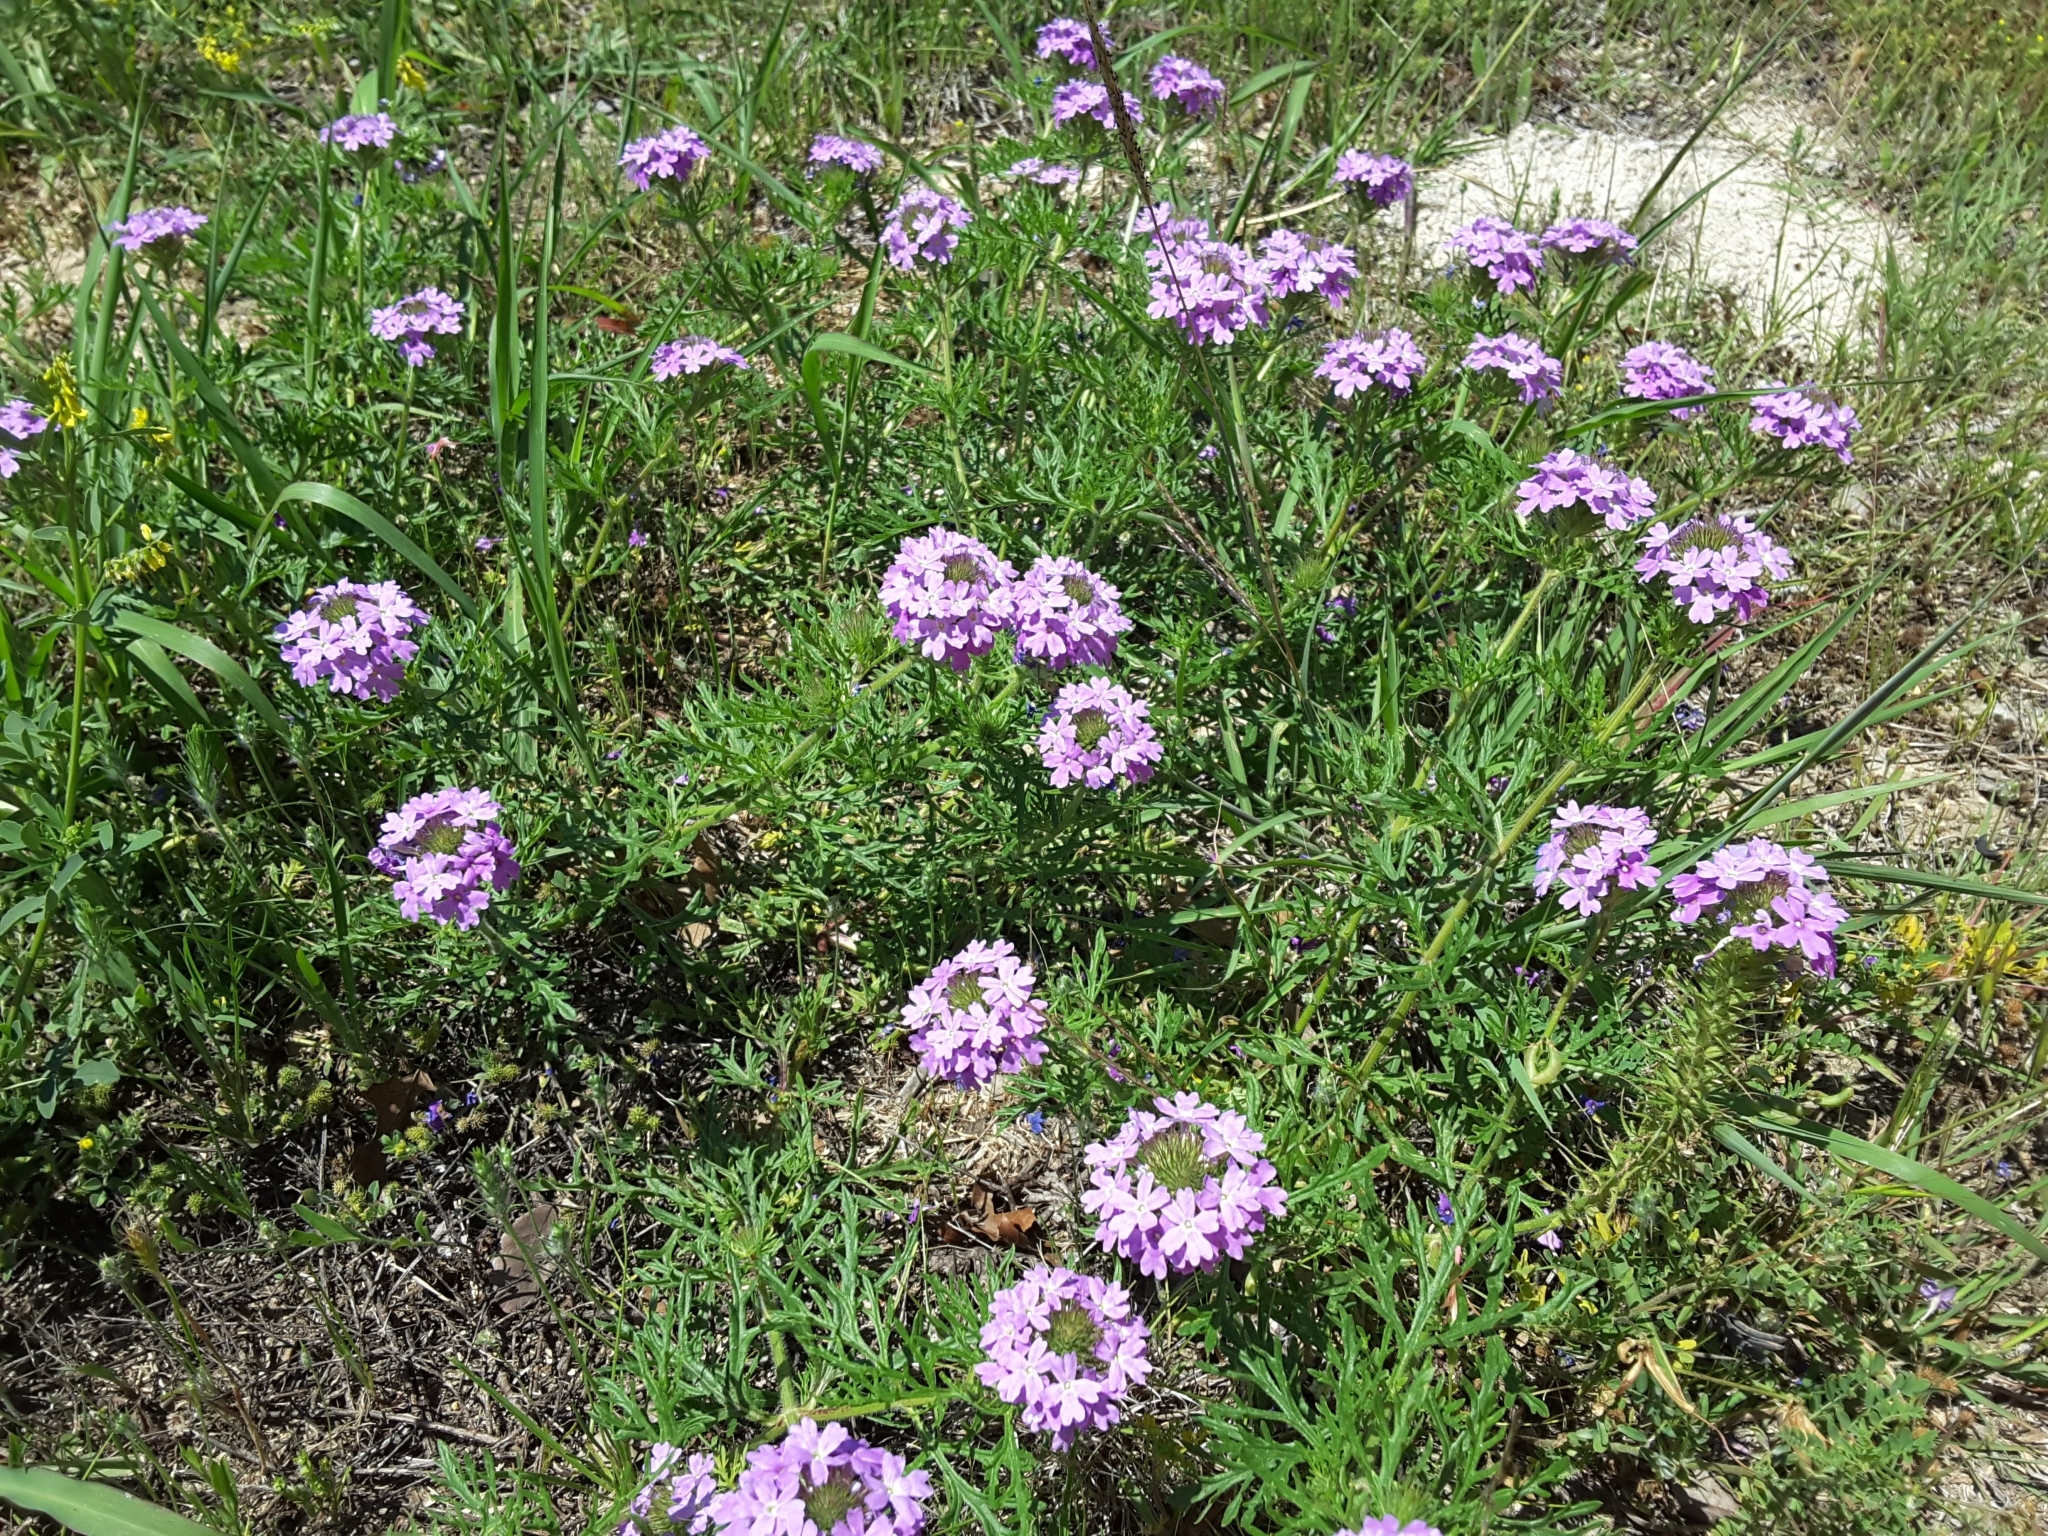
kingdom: Plantae
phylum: Tracheophyta
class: Magnoliopsida
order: Lamiales
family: Verbenaceae
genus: Verbena
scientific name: Verbena bipinnatifida
